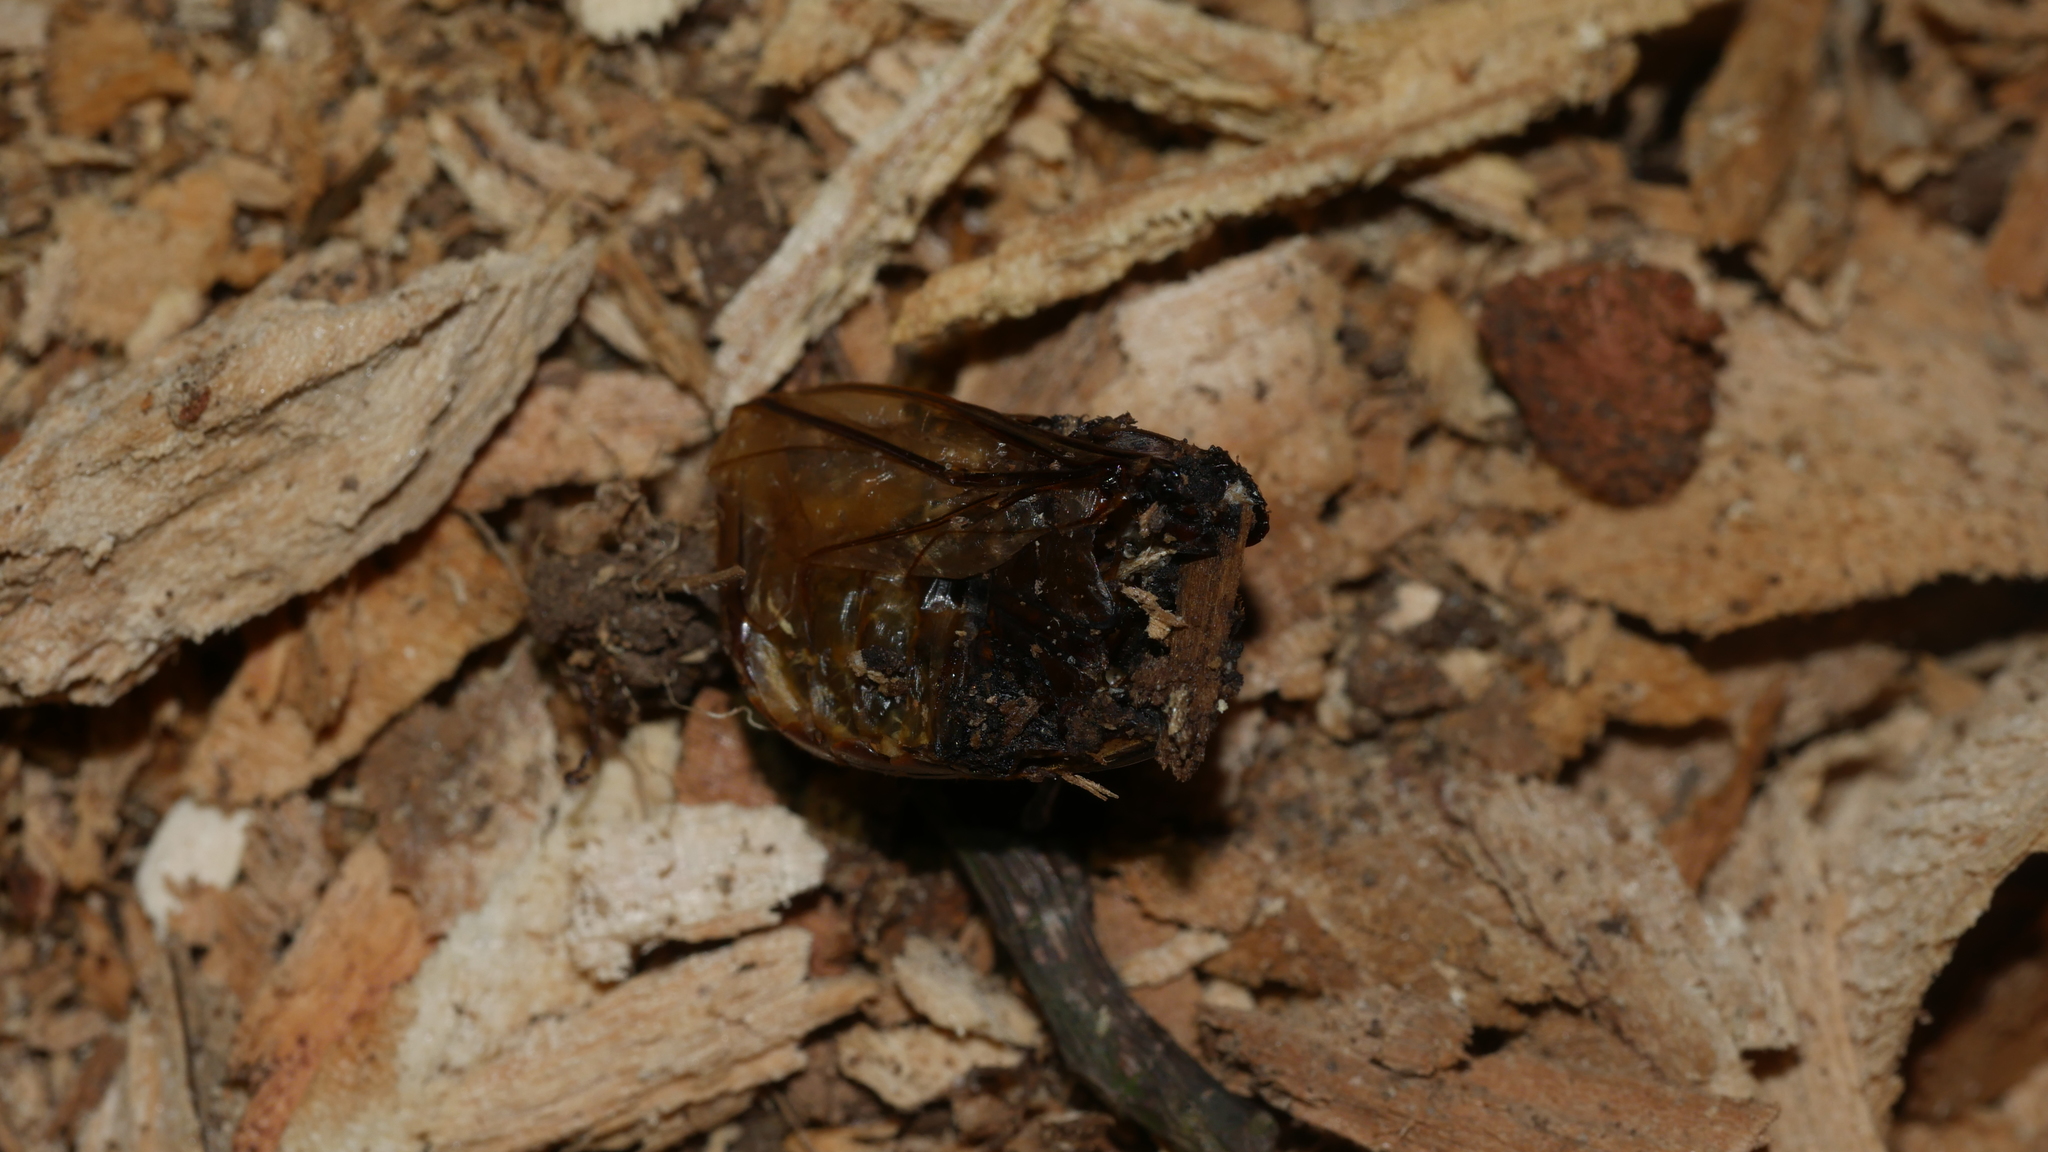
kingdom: Animalia
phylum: Arthropoda
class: Insecta
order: Coleoptera
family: Passalidae
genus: Odontotaenius
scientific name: Odontotaenius disjunctus
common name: Patent leather beetle
